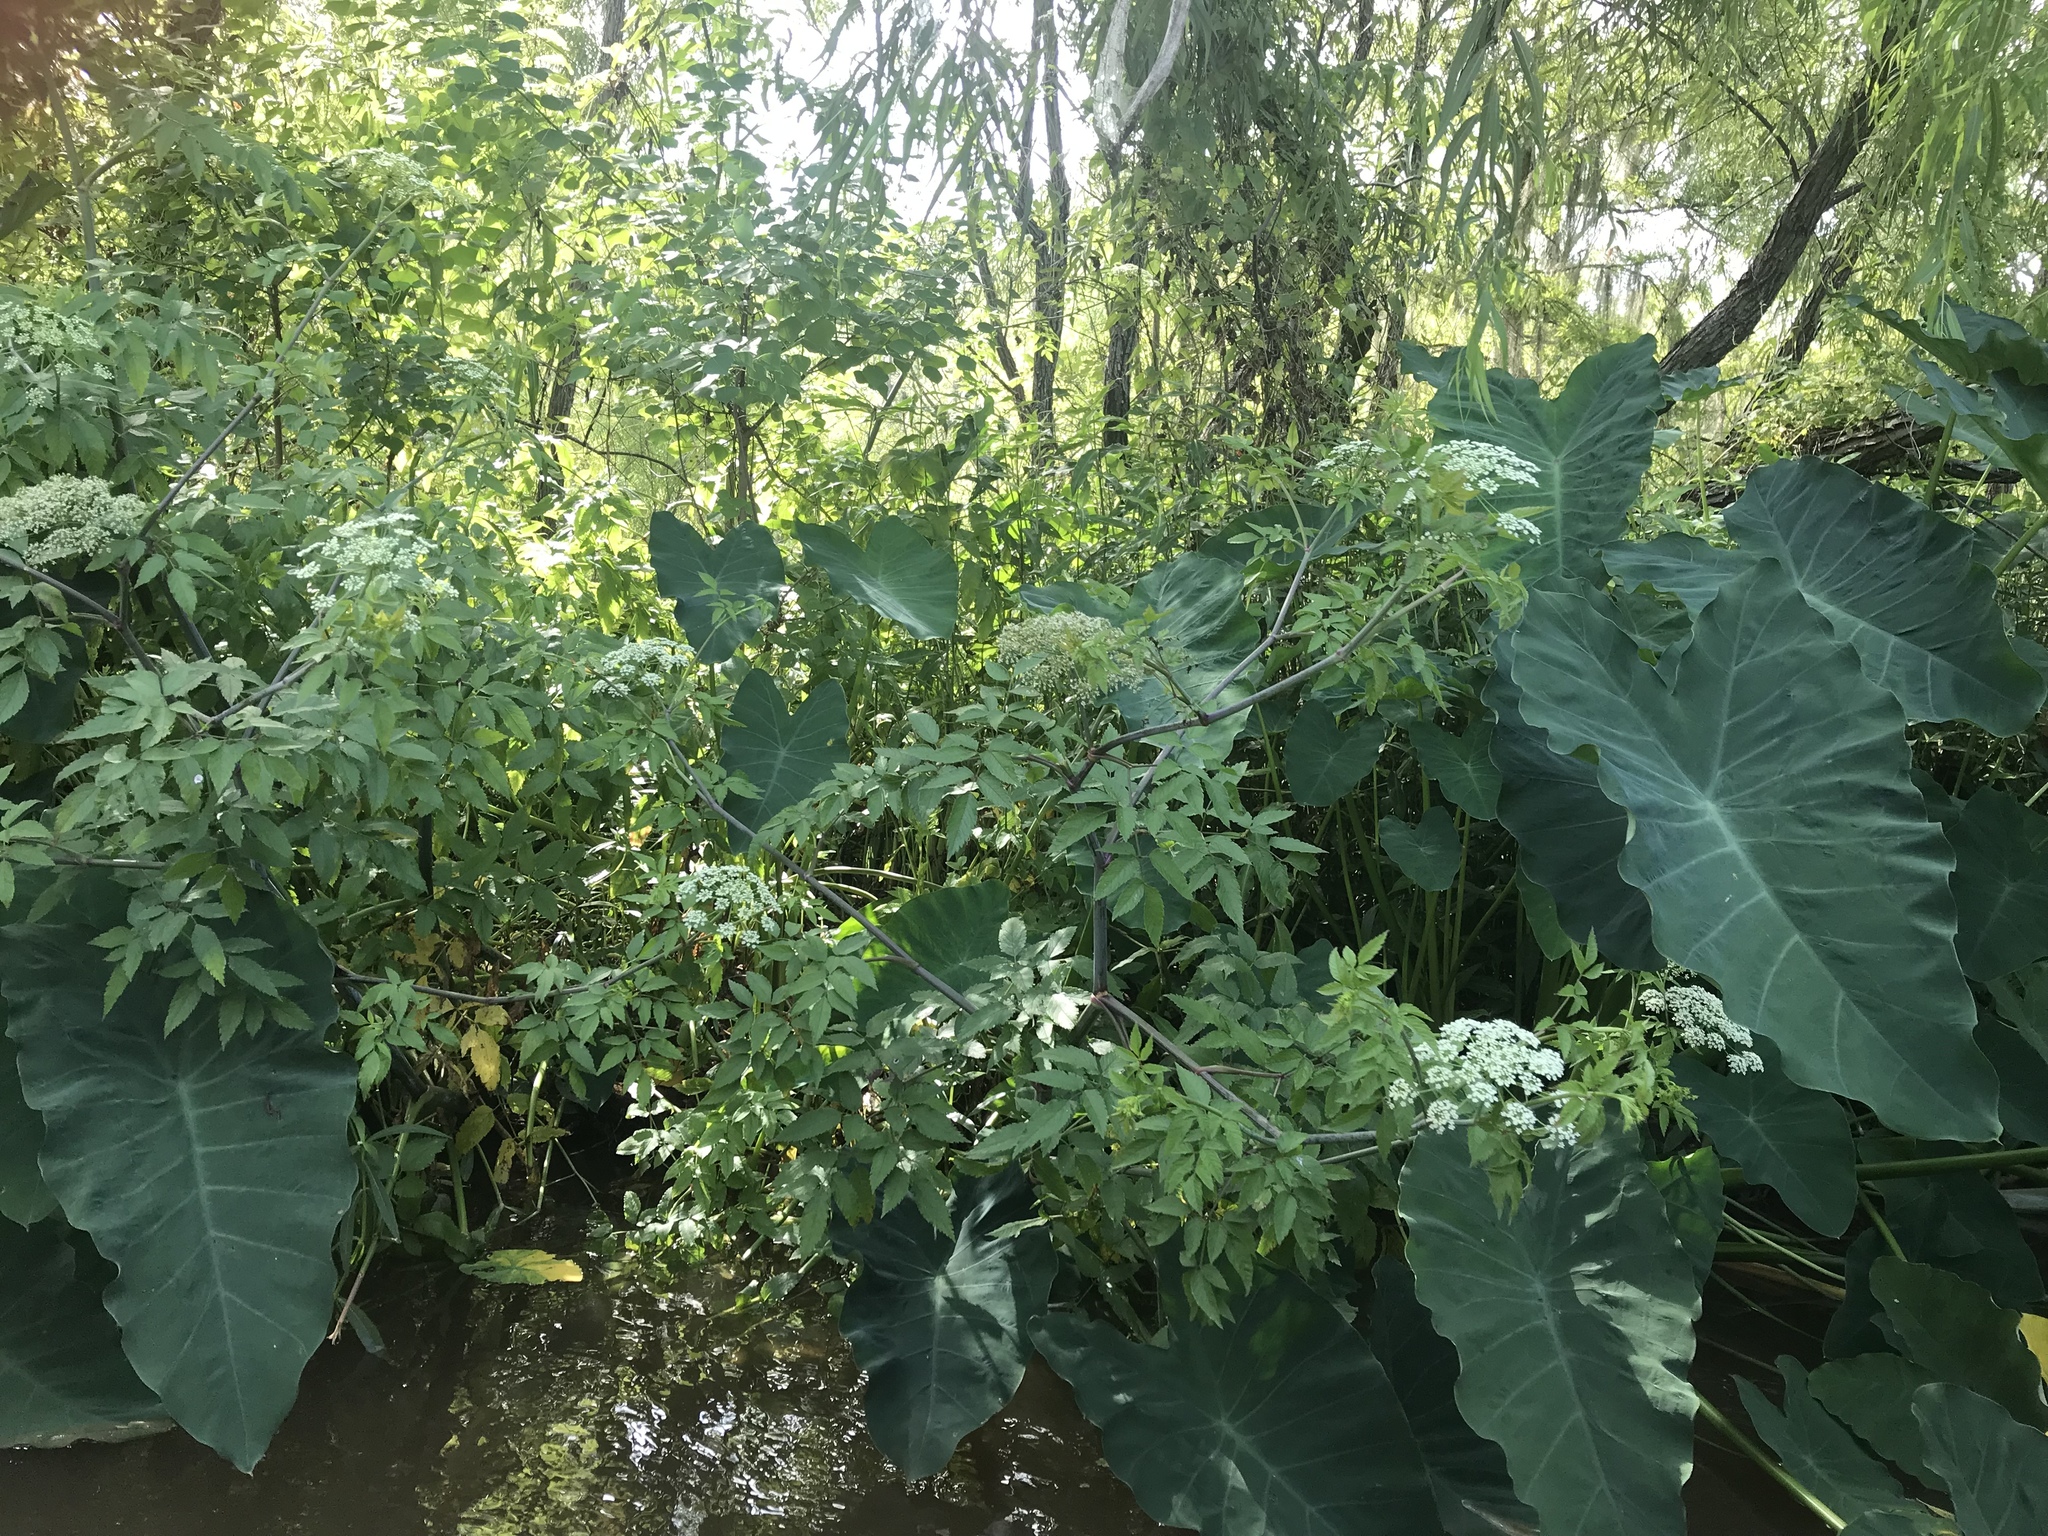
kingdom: Plantae
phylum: Tracheophyta
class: Magnoliopsida
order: Apiales
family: Apiaceae
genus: Cicuta
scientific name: Cicuta maculata
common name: Spotted cowbane
